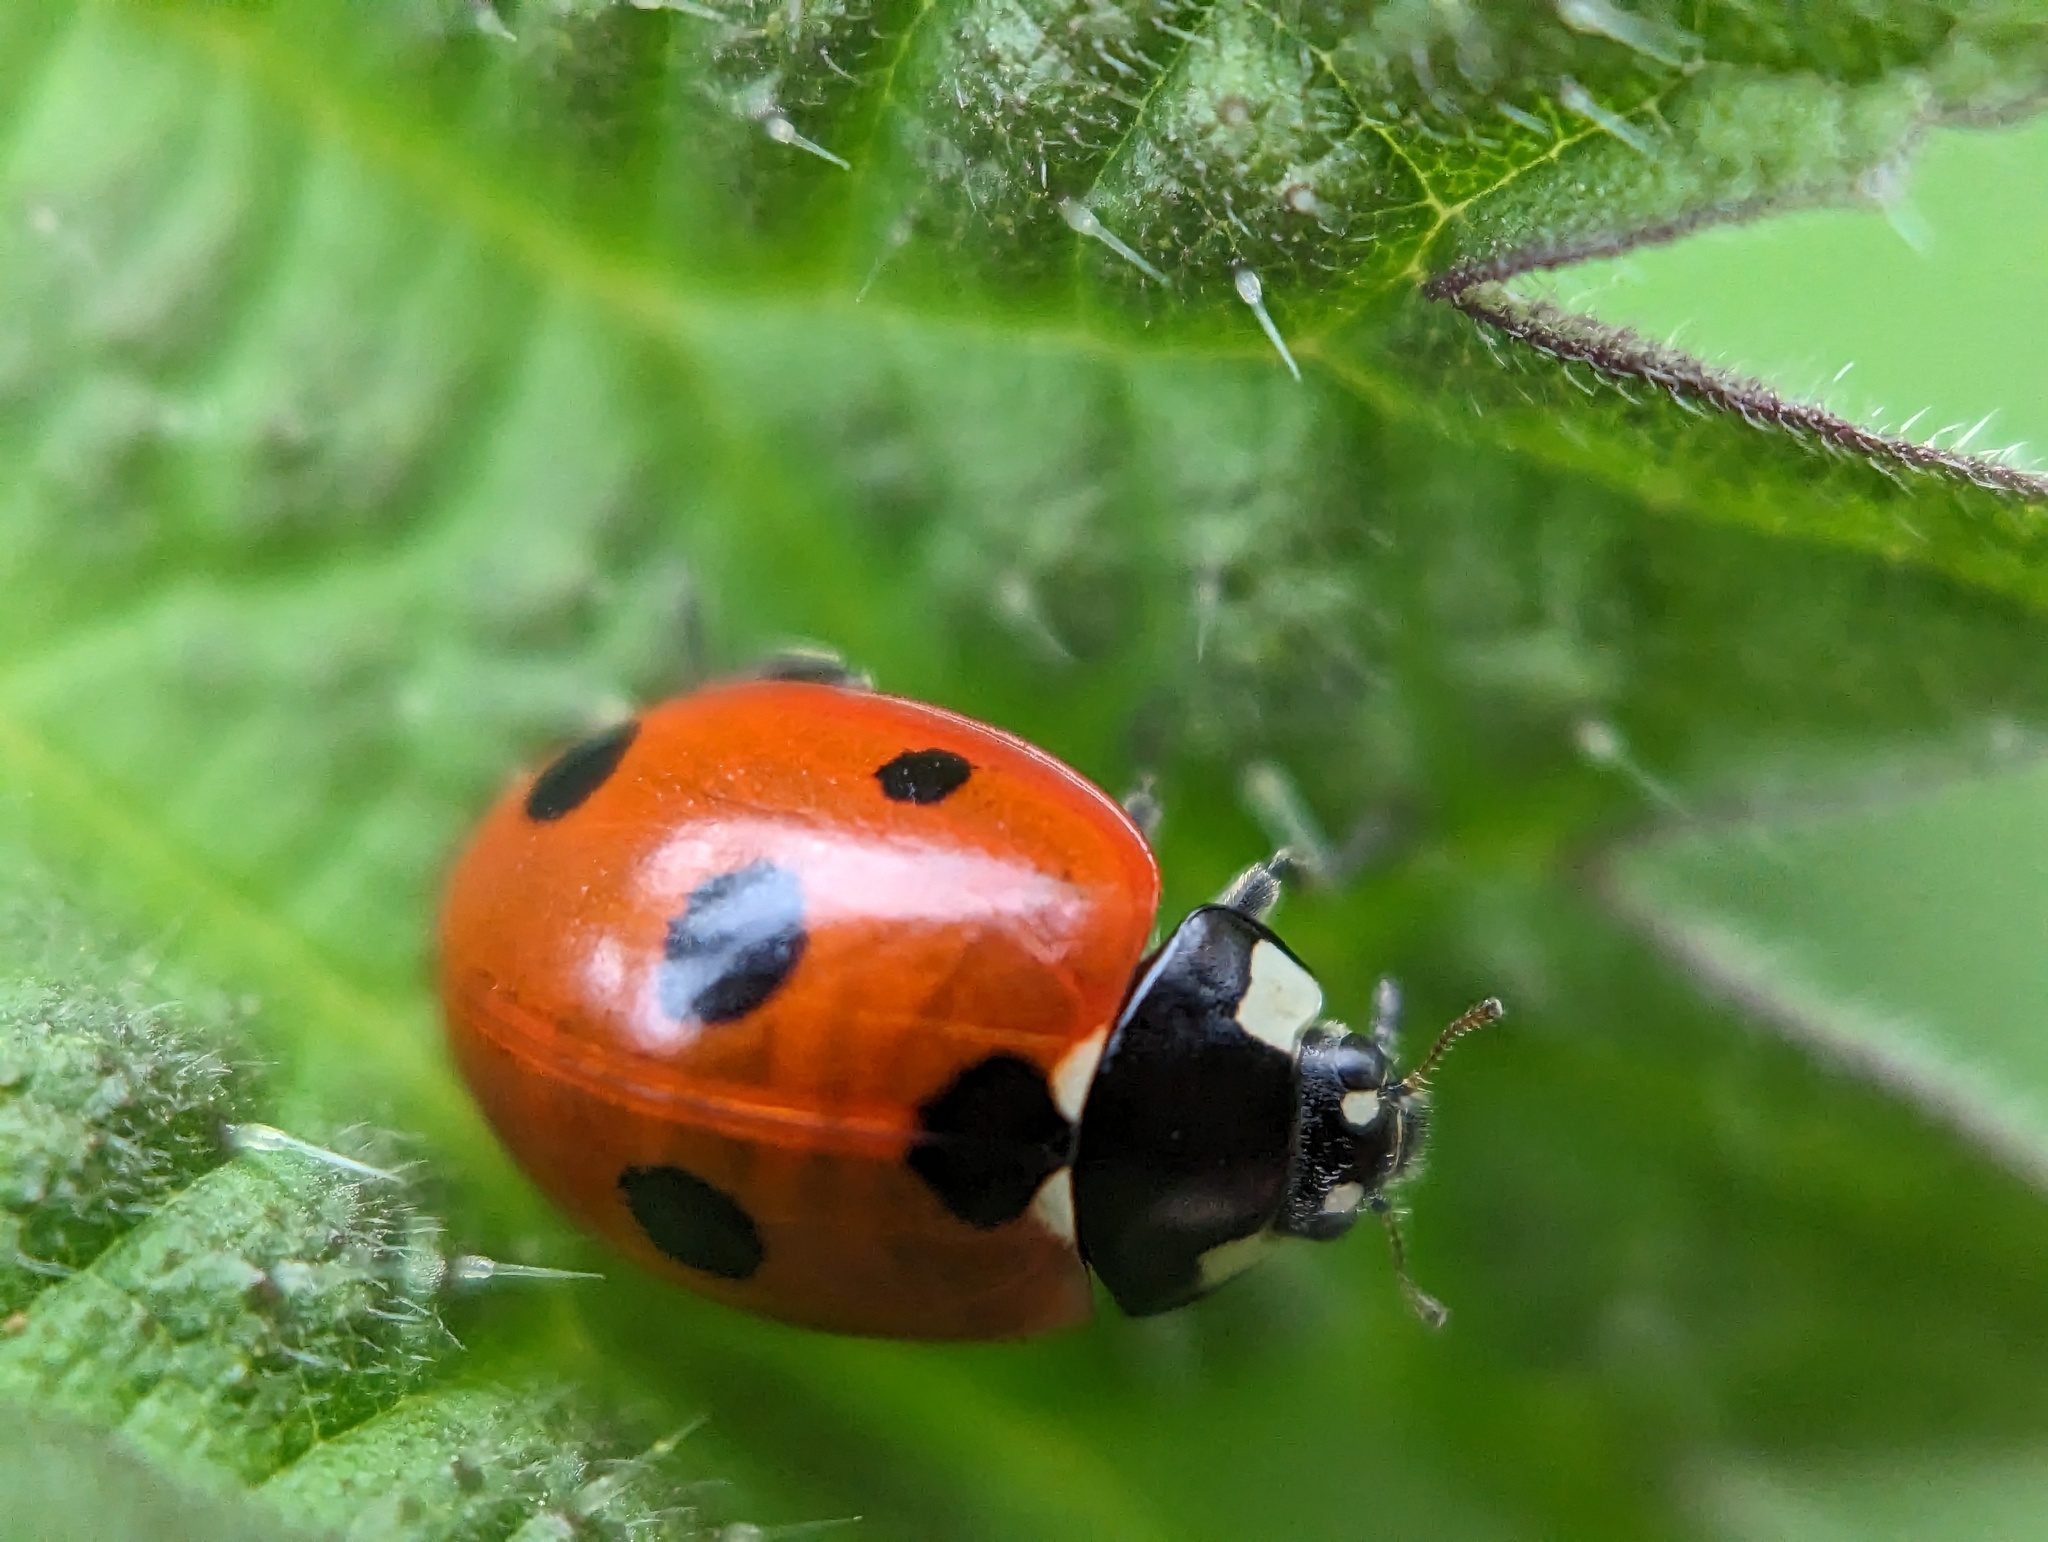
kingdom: Animalia
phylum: Arthropoda
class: Insecta
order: Coleoptera
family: Coccinellidae
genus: Coccinella
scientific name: Coccinella septempunctata
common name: Sevenspotted lady beetle
